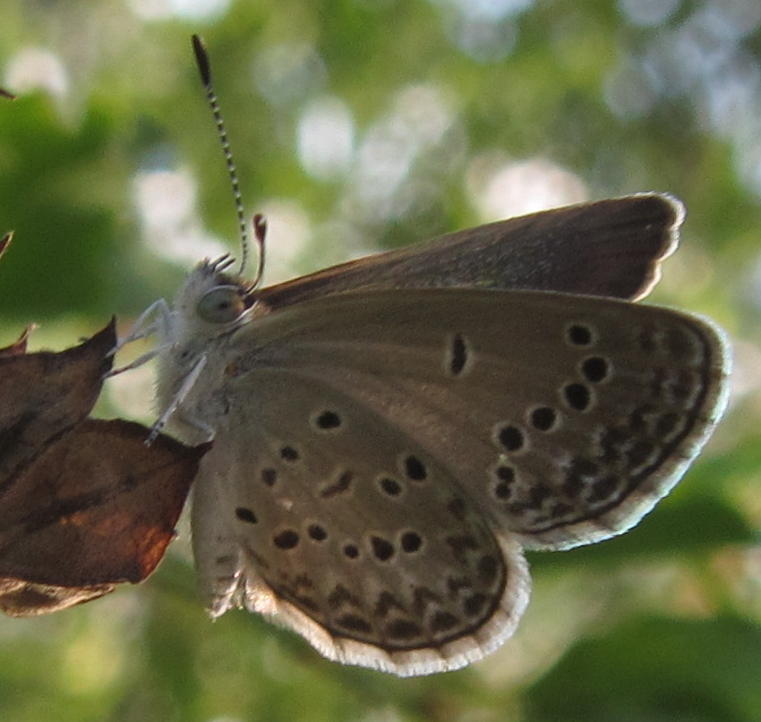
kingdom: Animalia
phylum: Arthropoda
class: Insecta
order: Lepidoptera
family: Lycaenidae
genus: Zizina
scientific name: Zizina antanossa
